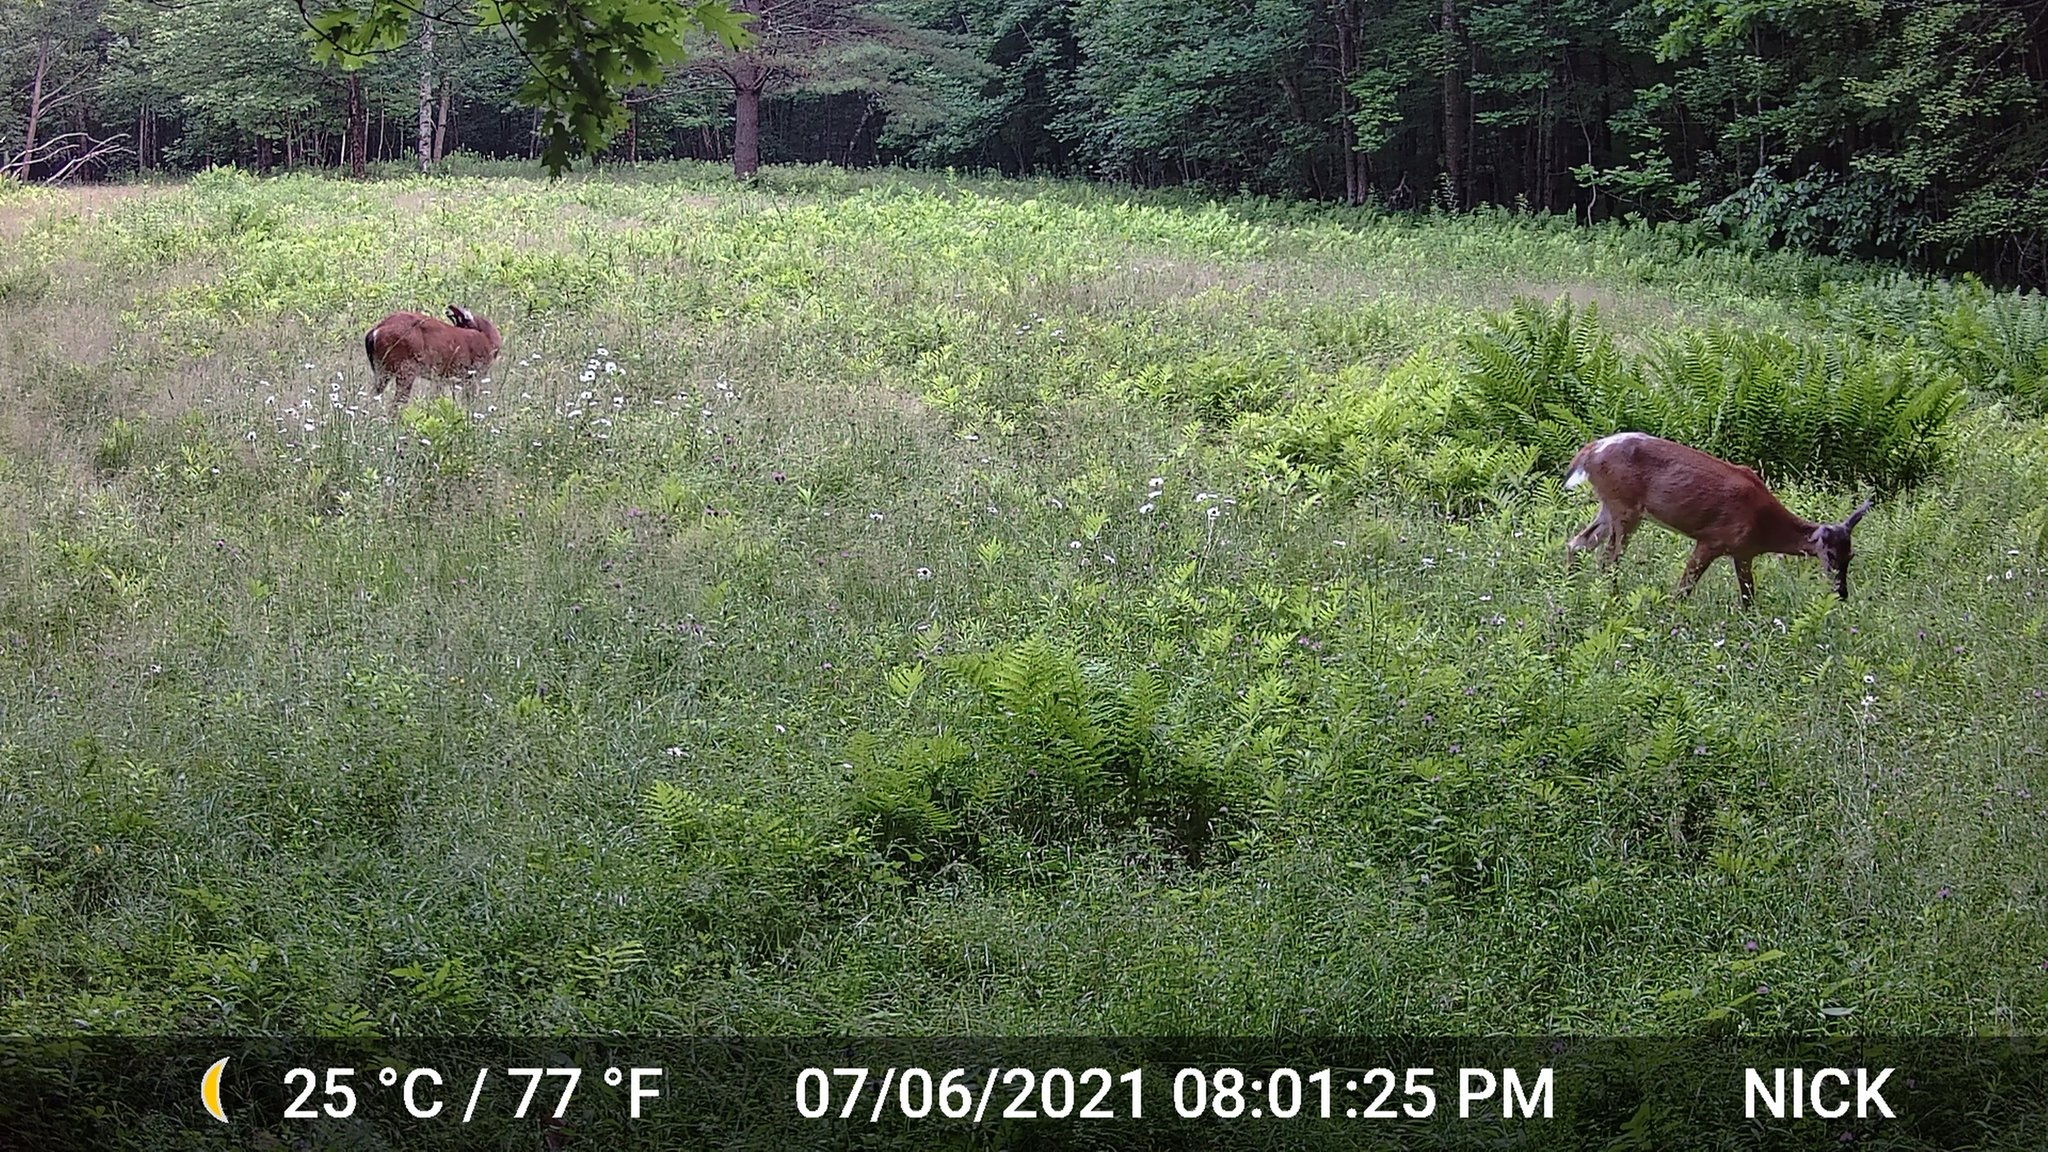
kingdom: Animalia
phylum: Chordata
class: Mammalia
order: Artiodactyla
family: Cervidae
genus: Odocoileus
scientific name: Odocoileus virginianus
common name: White-tailed deer
